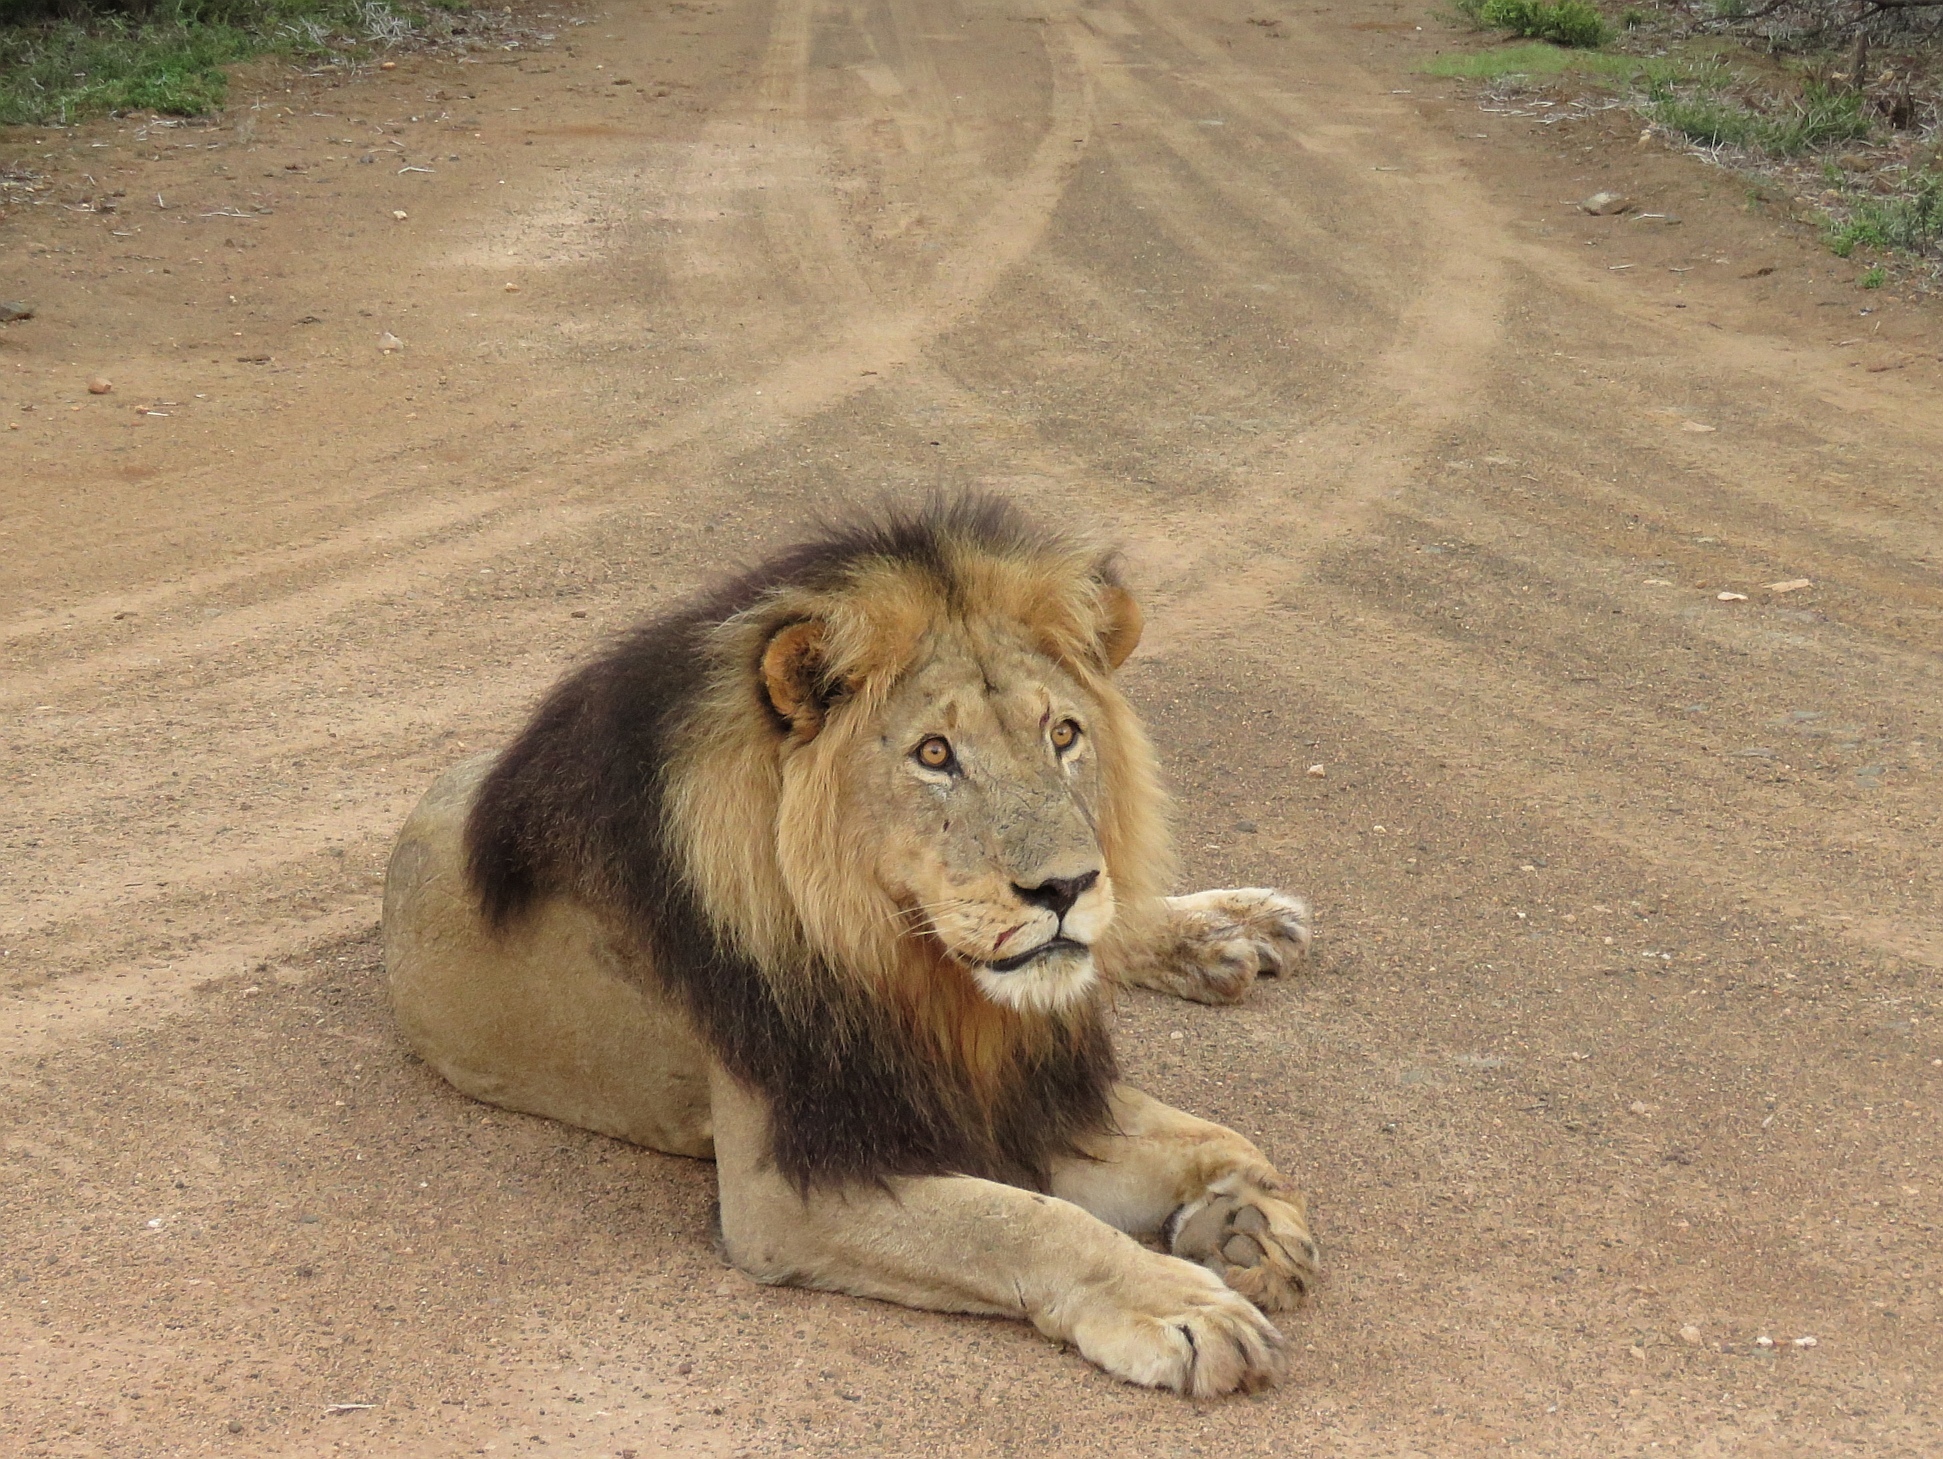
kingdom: Animalia
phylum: Chordata
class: Mammalia
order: Carnivora
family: Felidae
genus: Panthera
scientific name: Panthera leo
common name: Lion
